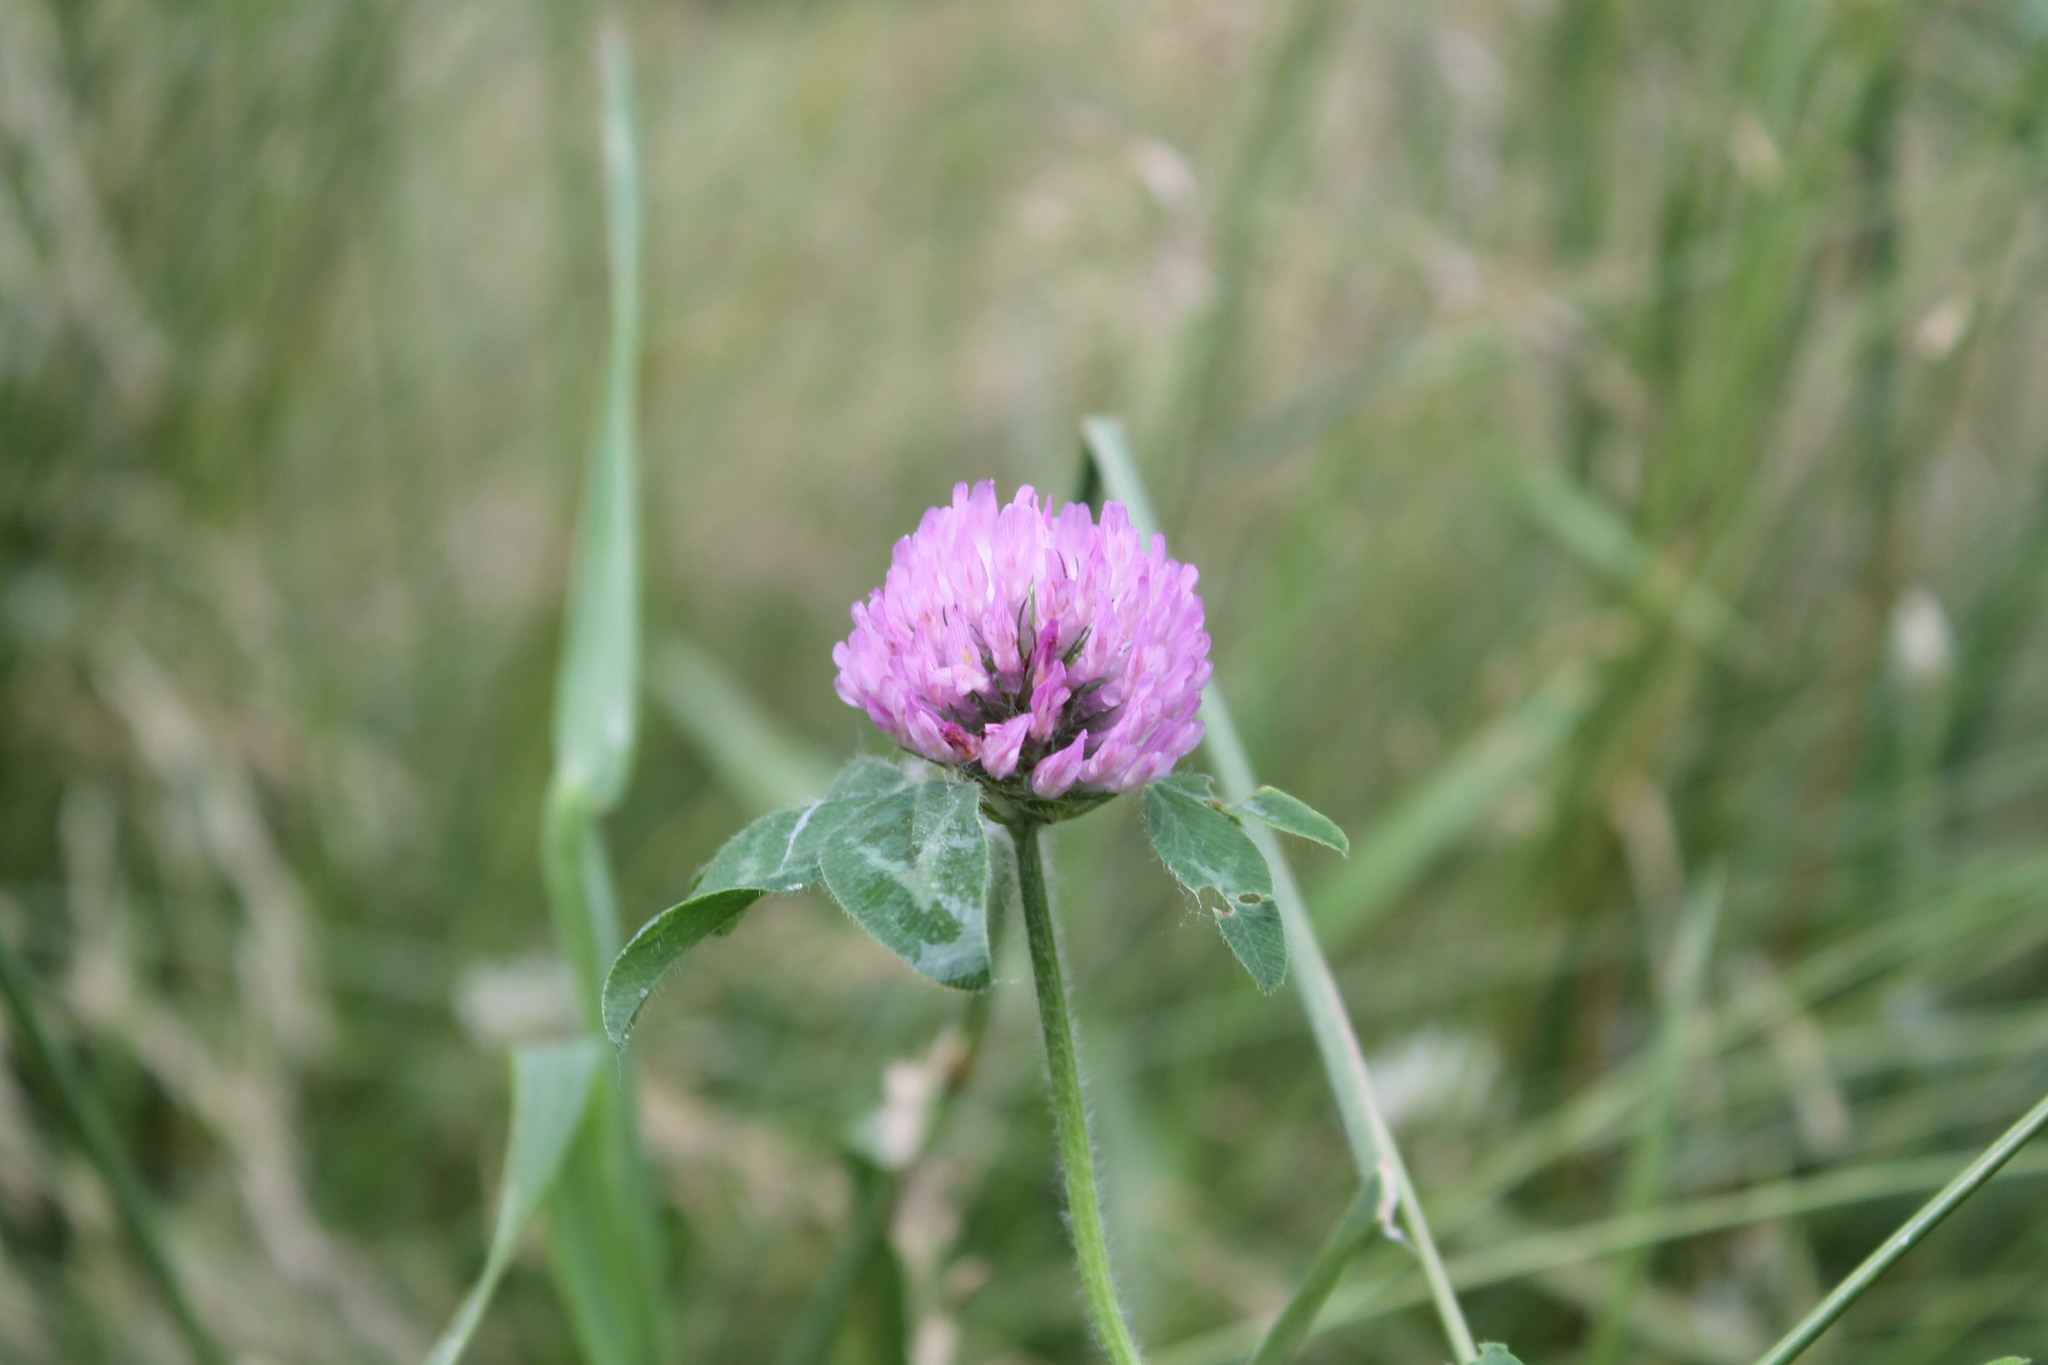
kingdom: Plantae
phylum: Tracheophyta
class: Magnoliopsida
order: Fabales
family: Fabaceae
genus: Trifolium
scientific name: Trifolium pratense
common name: Red clover
